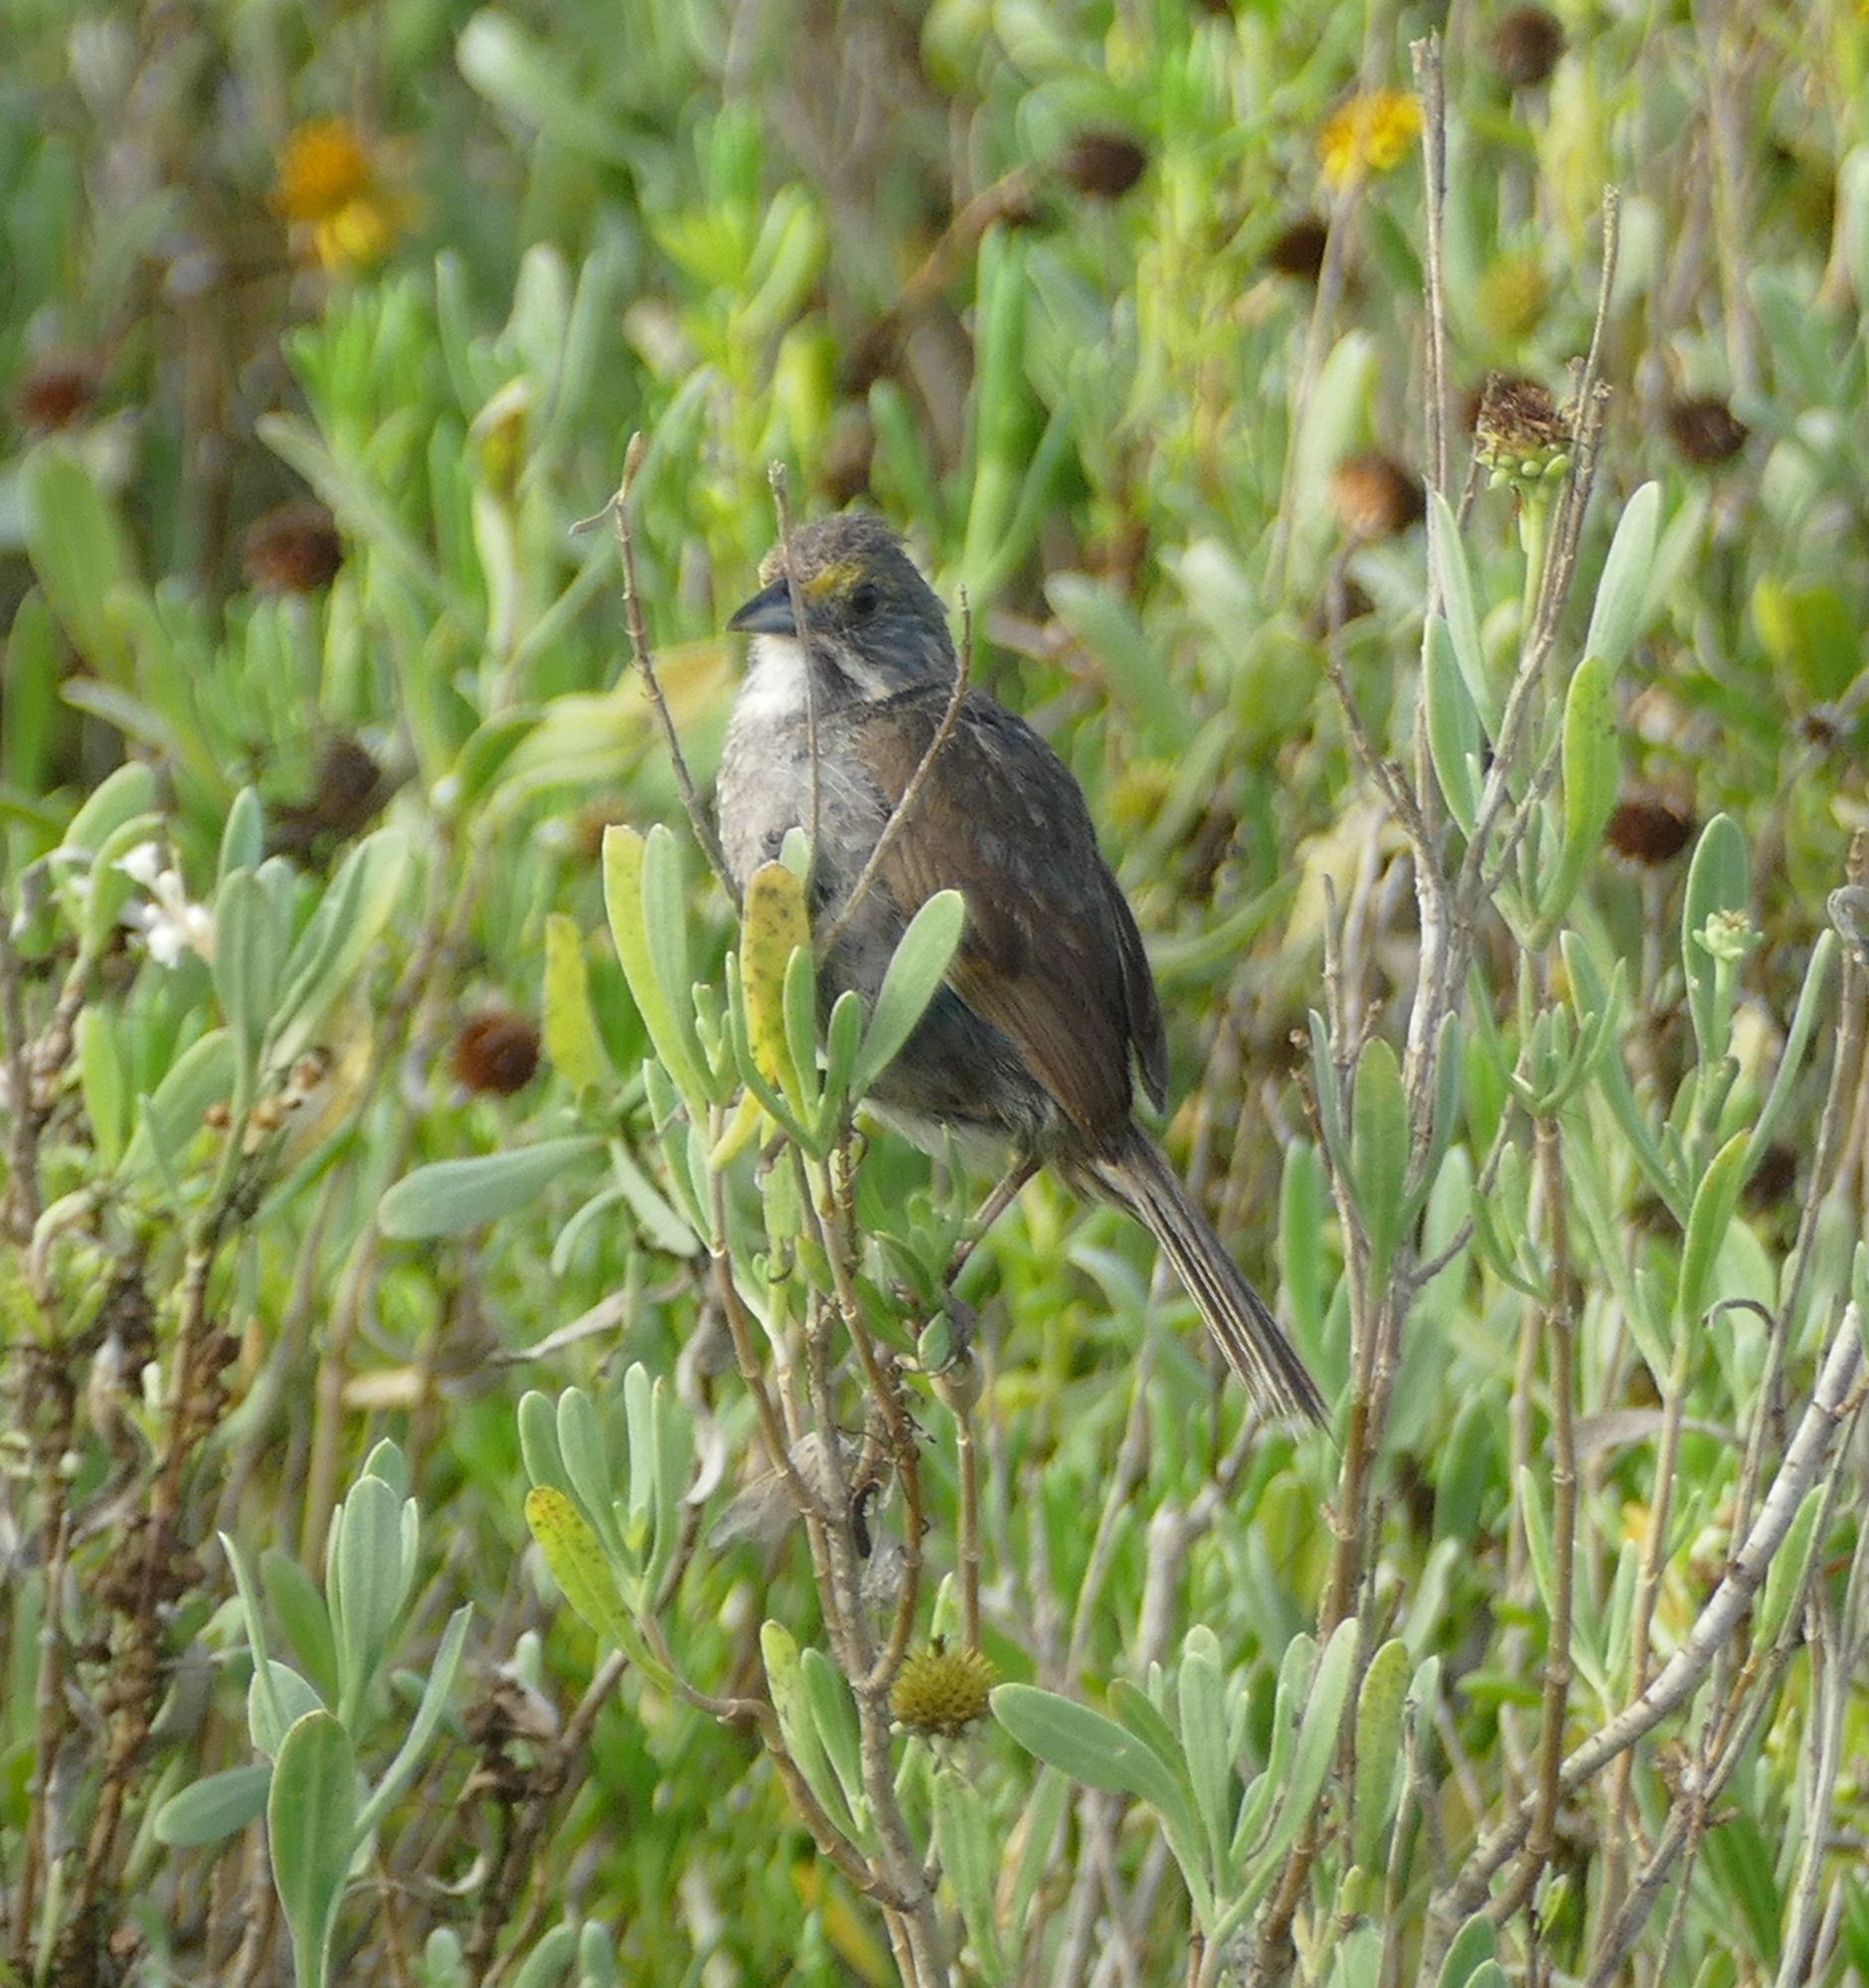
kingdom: Animalia
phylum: Chordata
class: Aves
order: Passeriformes
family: Passerellidae
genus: Ammospiza
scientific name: Ammospiza maritima
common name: Seaside sparrow
